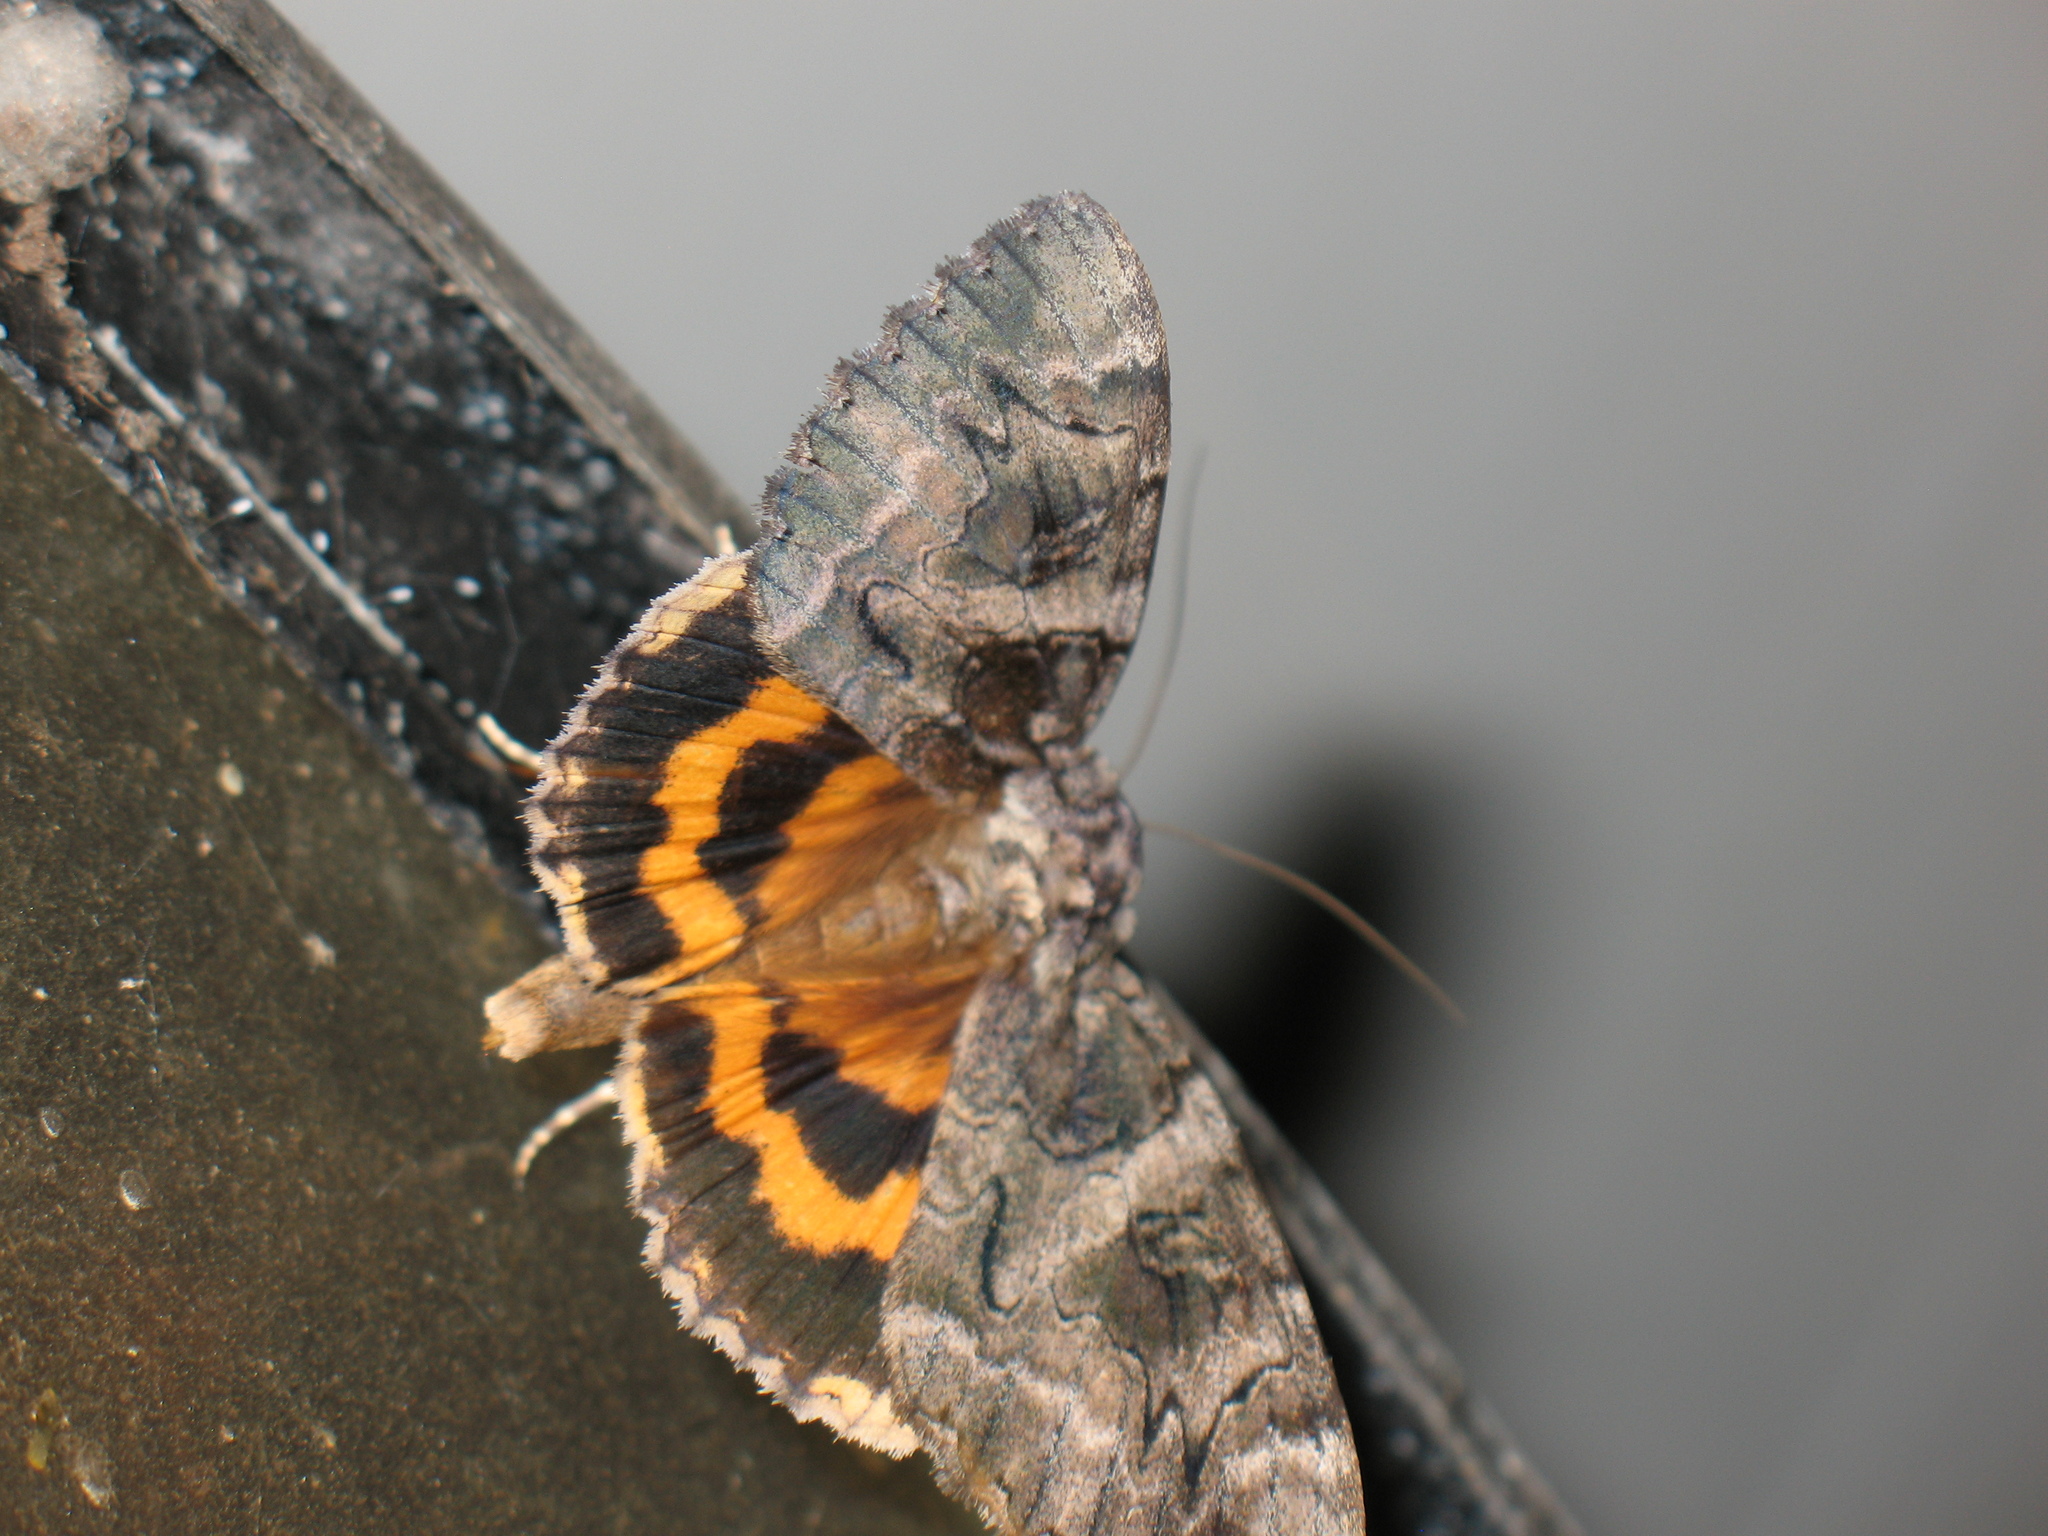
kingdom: Animalia
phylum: Arthropoda
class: Insecta
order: Lepidoptera
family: Erebidae
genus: Catocala
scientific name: Catocala piatrix
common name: The penitent underwing
